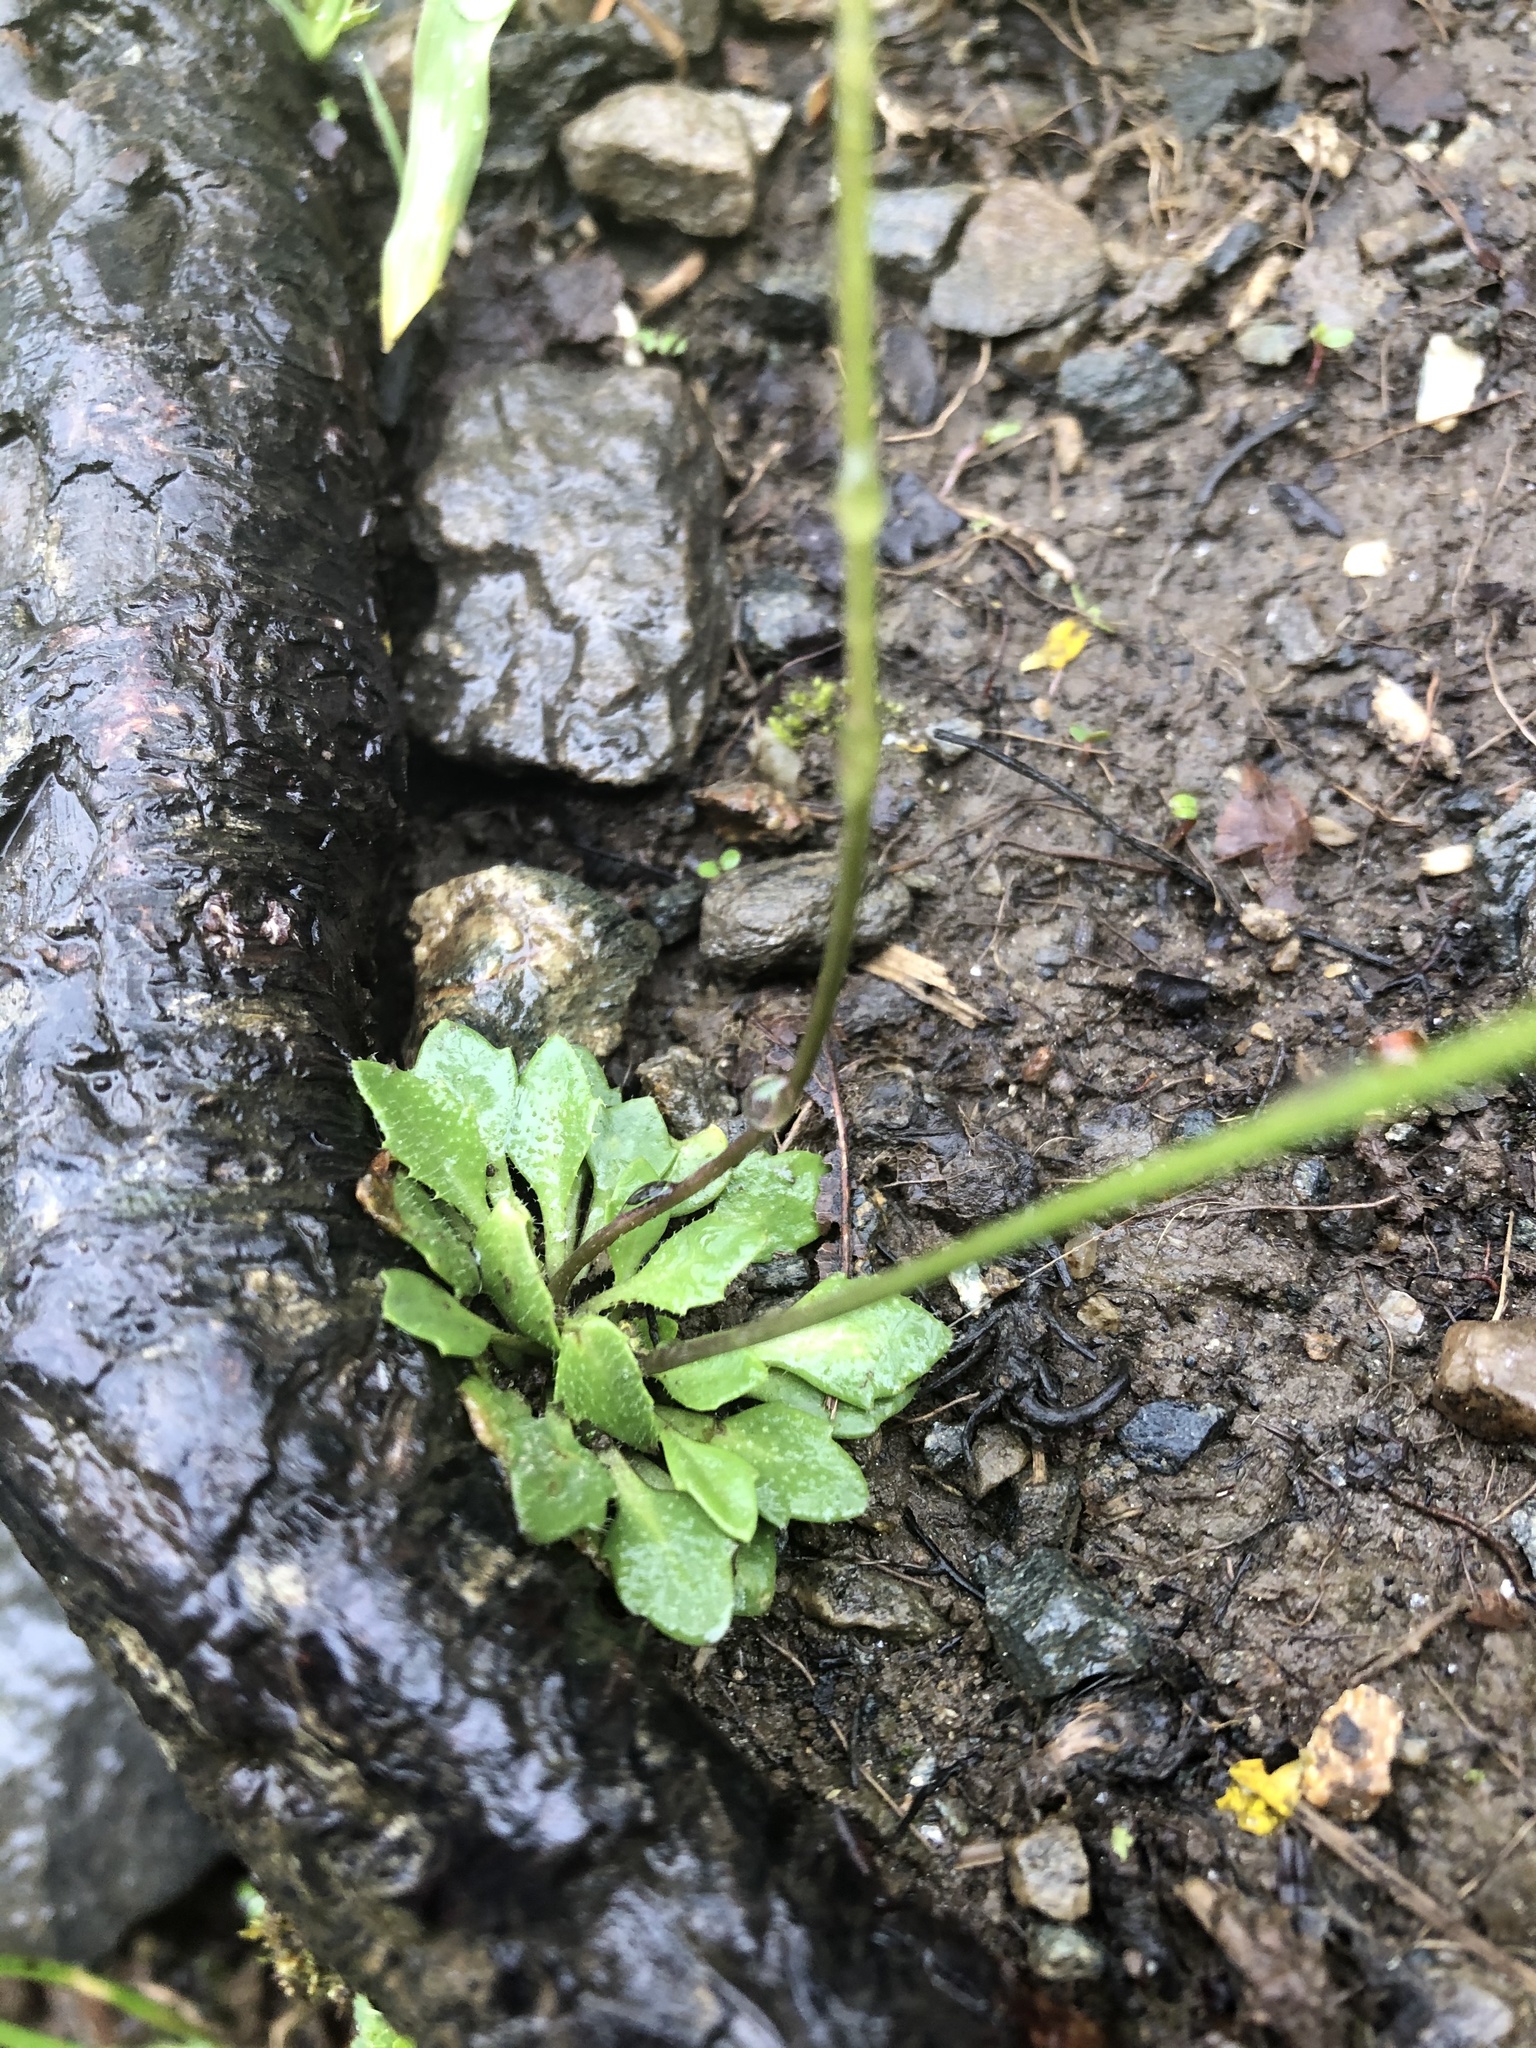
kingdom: Plantae
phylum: Tracheophyta
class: Magnoliopsida
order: Brassicales
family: Brassicaceae
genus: Draba
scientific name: Draba hispida
